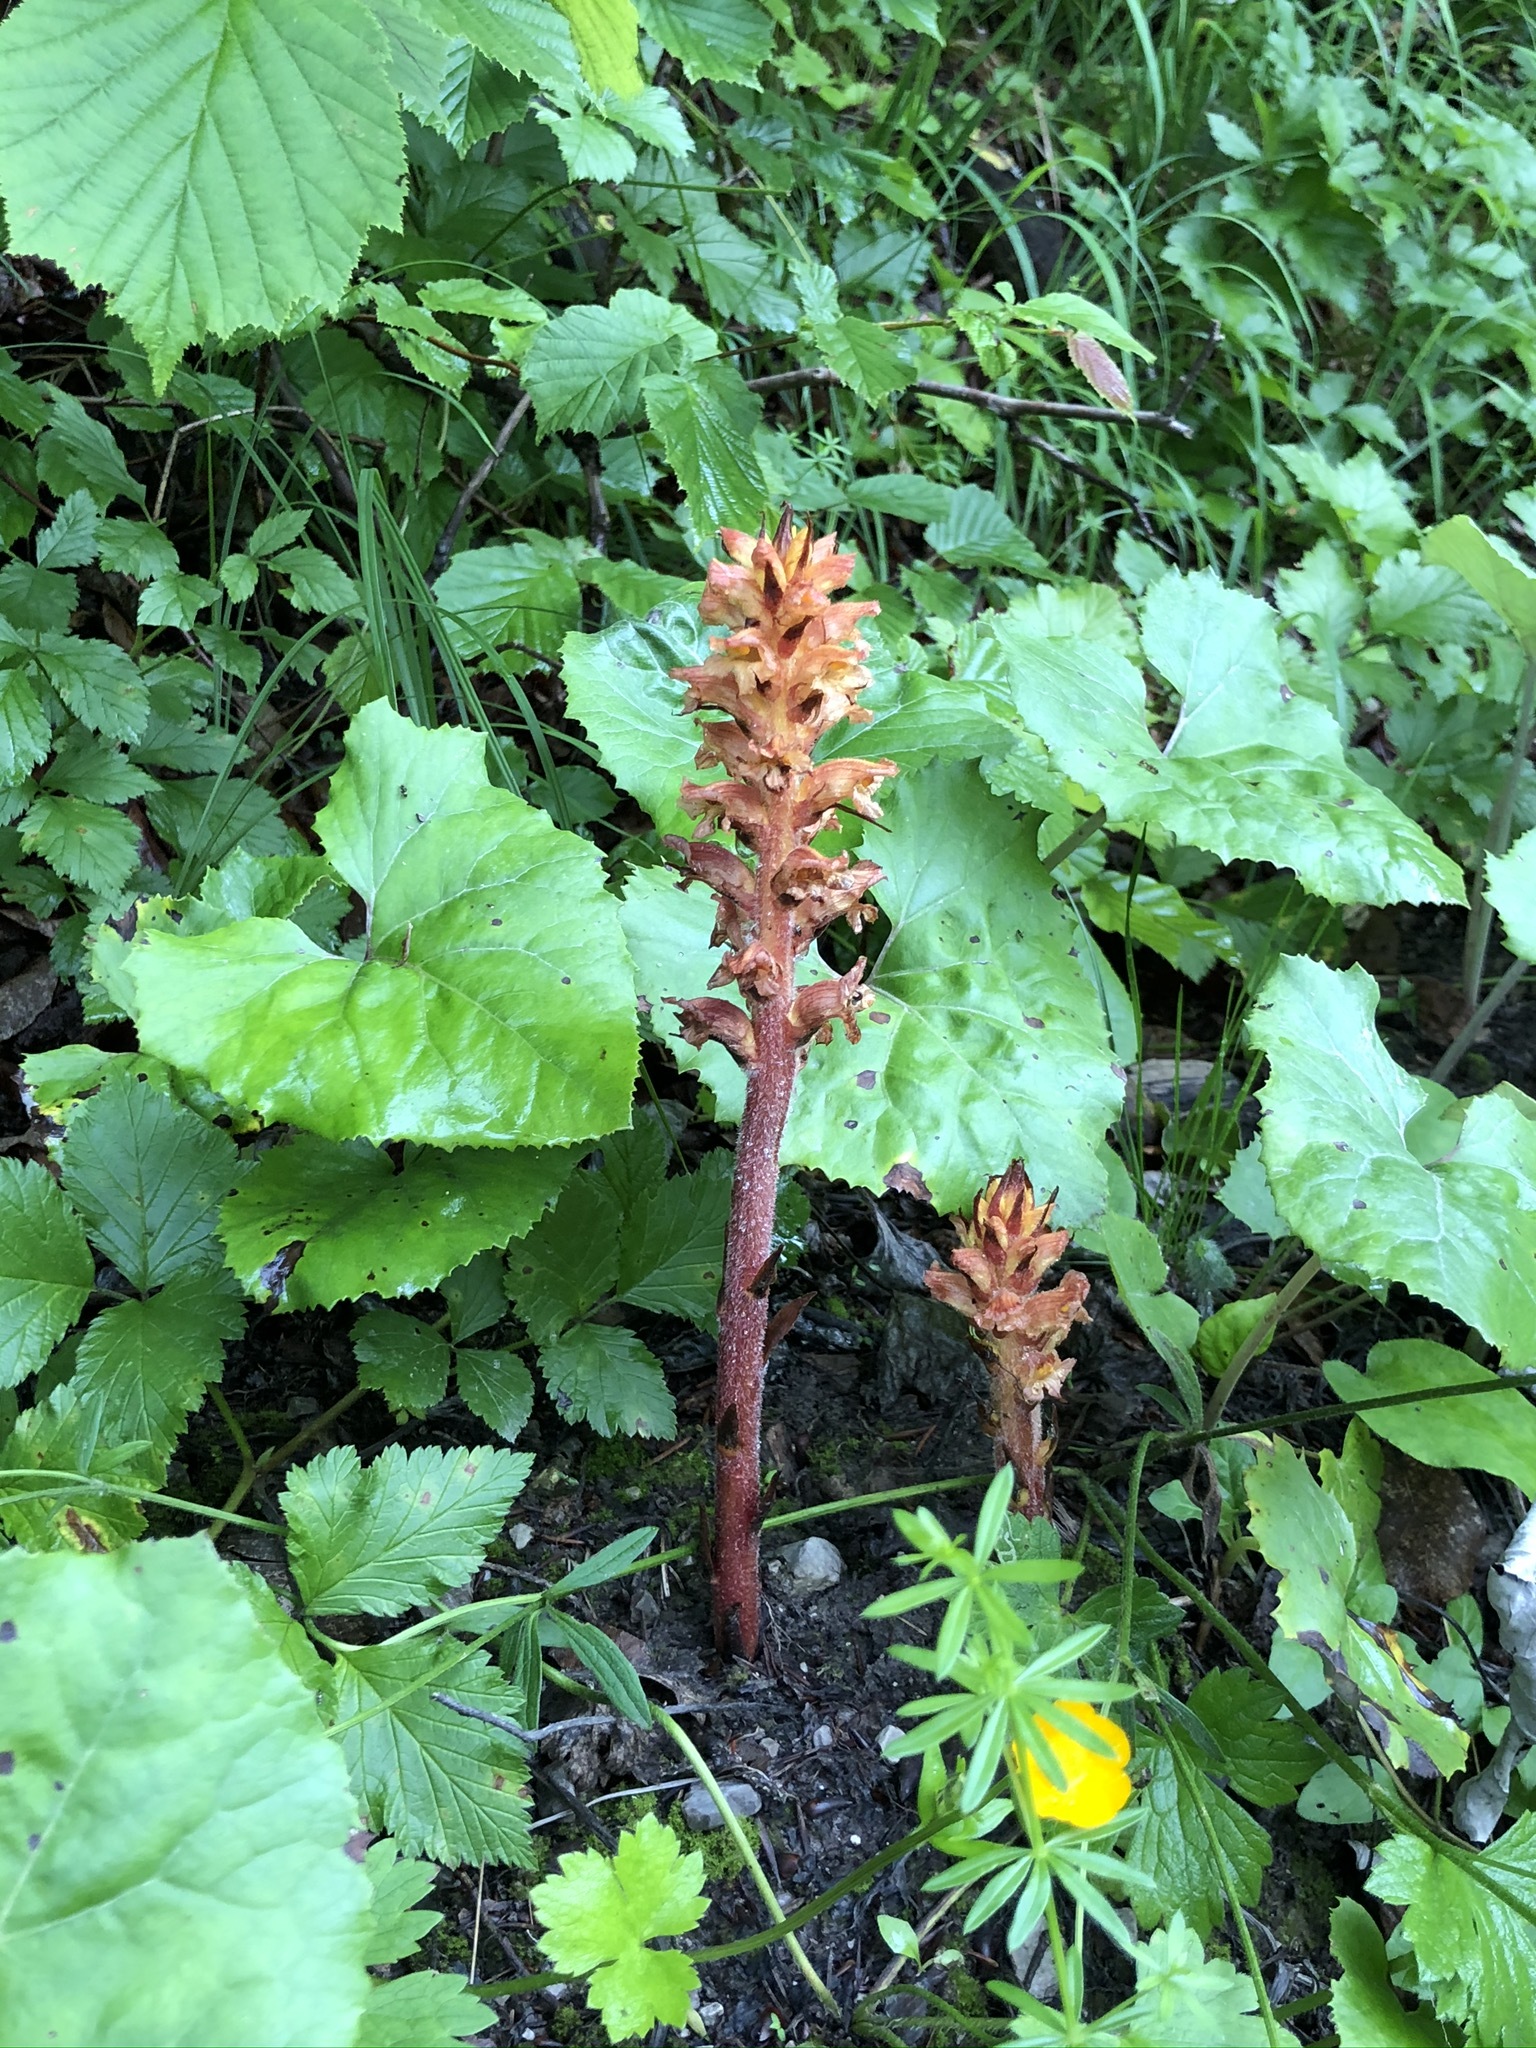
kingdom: Plantae
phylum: Tracheophyta
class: Magnoliopsida
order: Lamiales
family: Orobanchaceae
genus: Orobanche
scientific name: Orobanche flava
